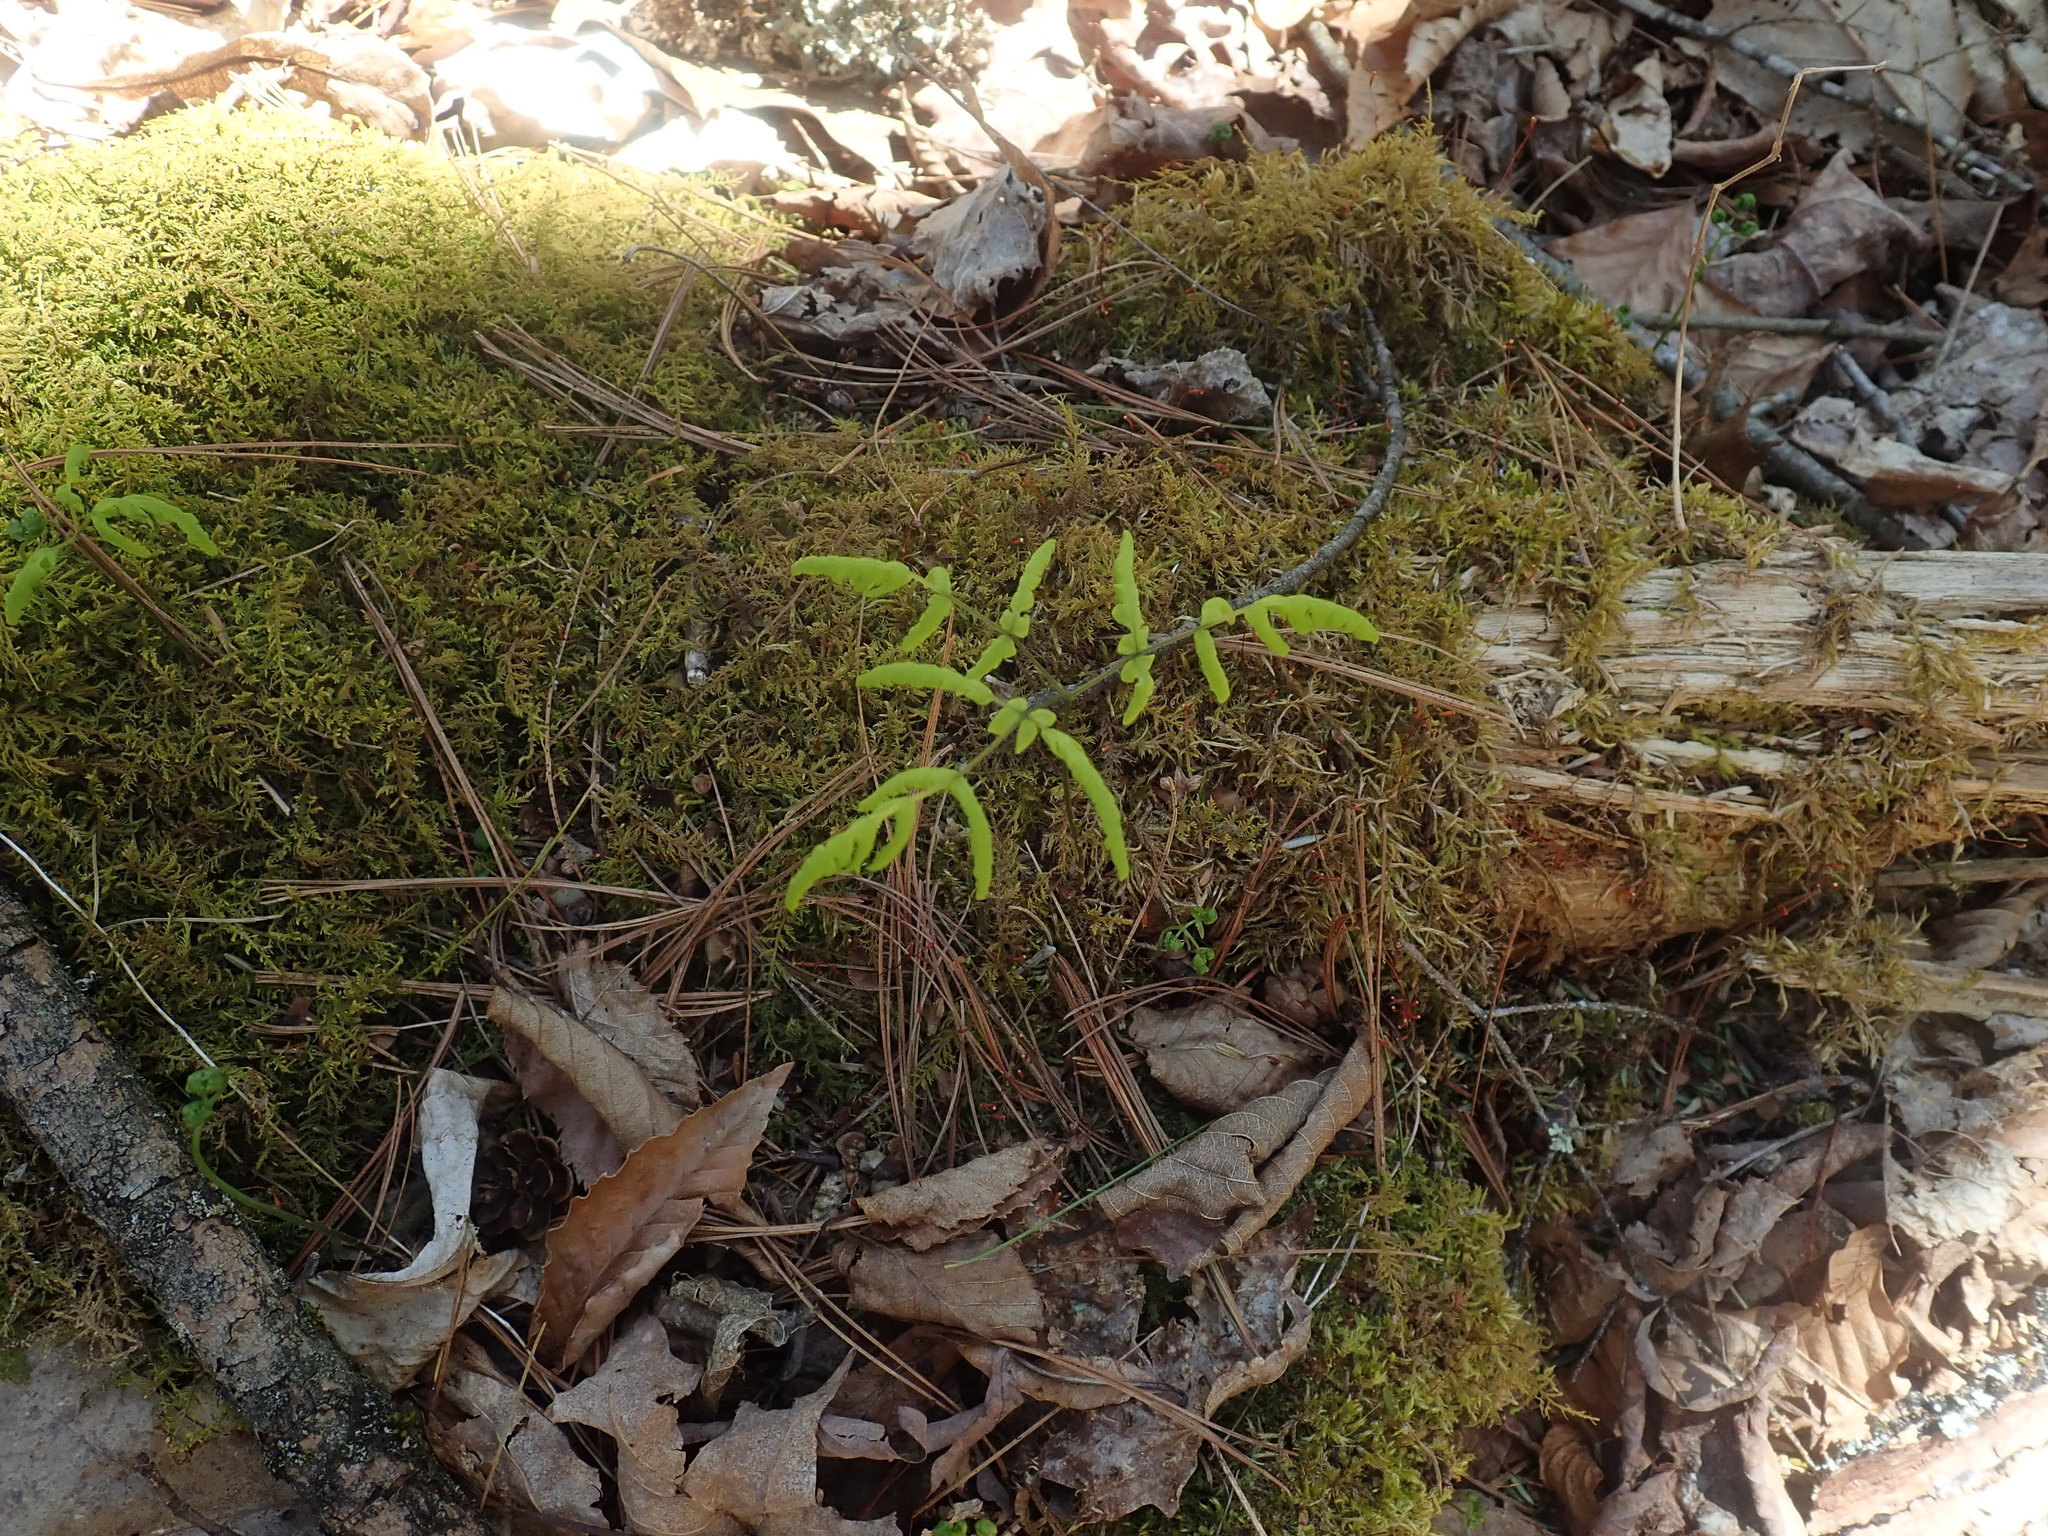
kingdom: Plantae
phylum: Tracheophyta
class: Polypodiopsida
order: Polypodiales
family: Cystopteridaceae
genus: Gymnocarpium
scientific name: Gymnocarpium dryopteris
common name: Oak fern
